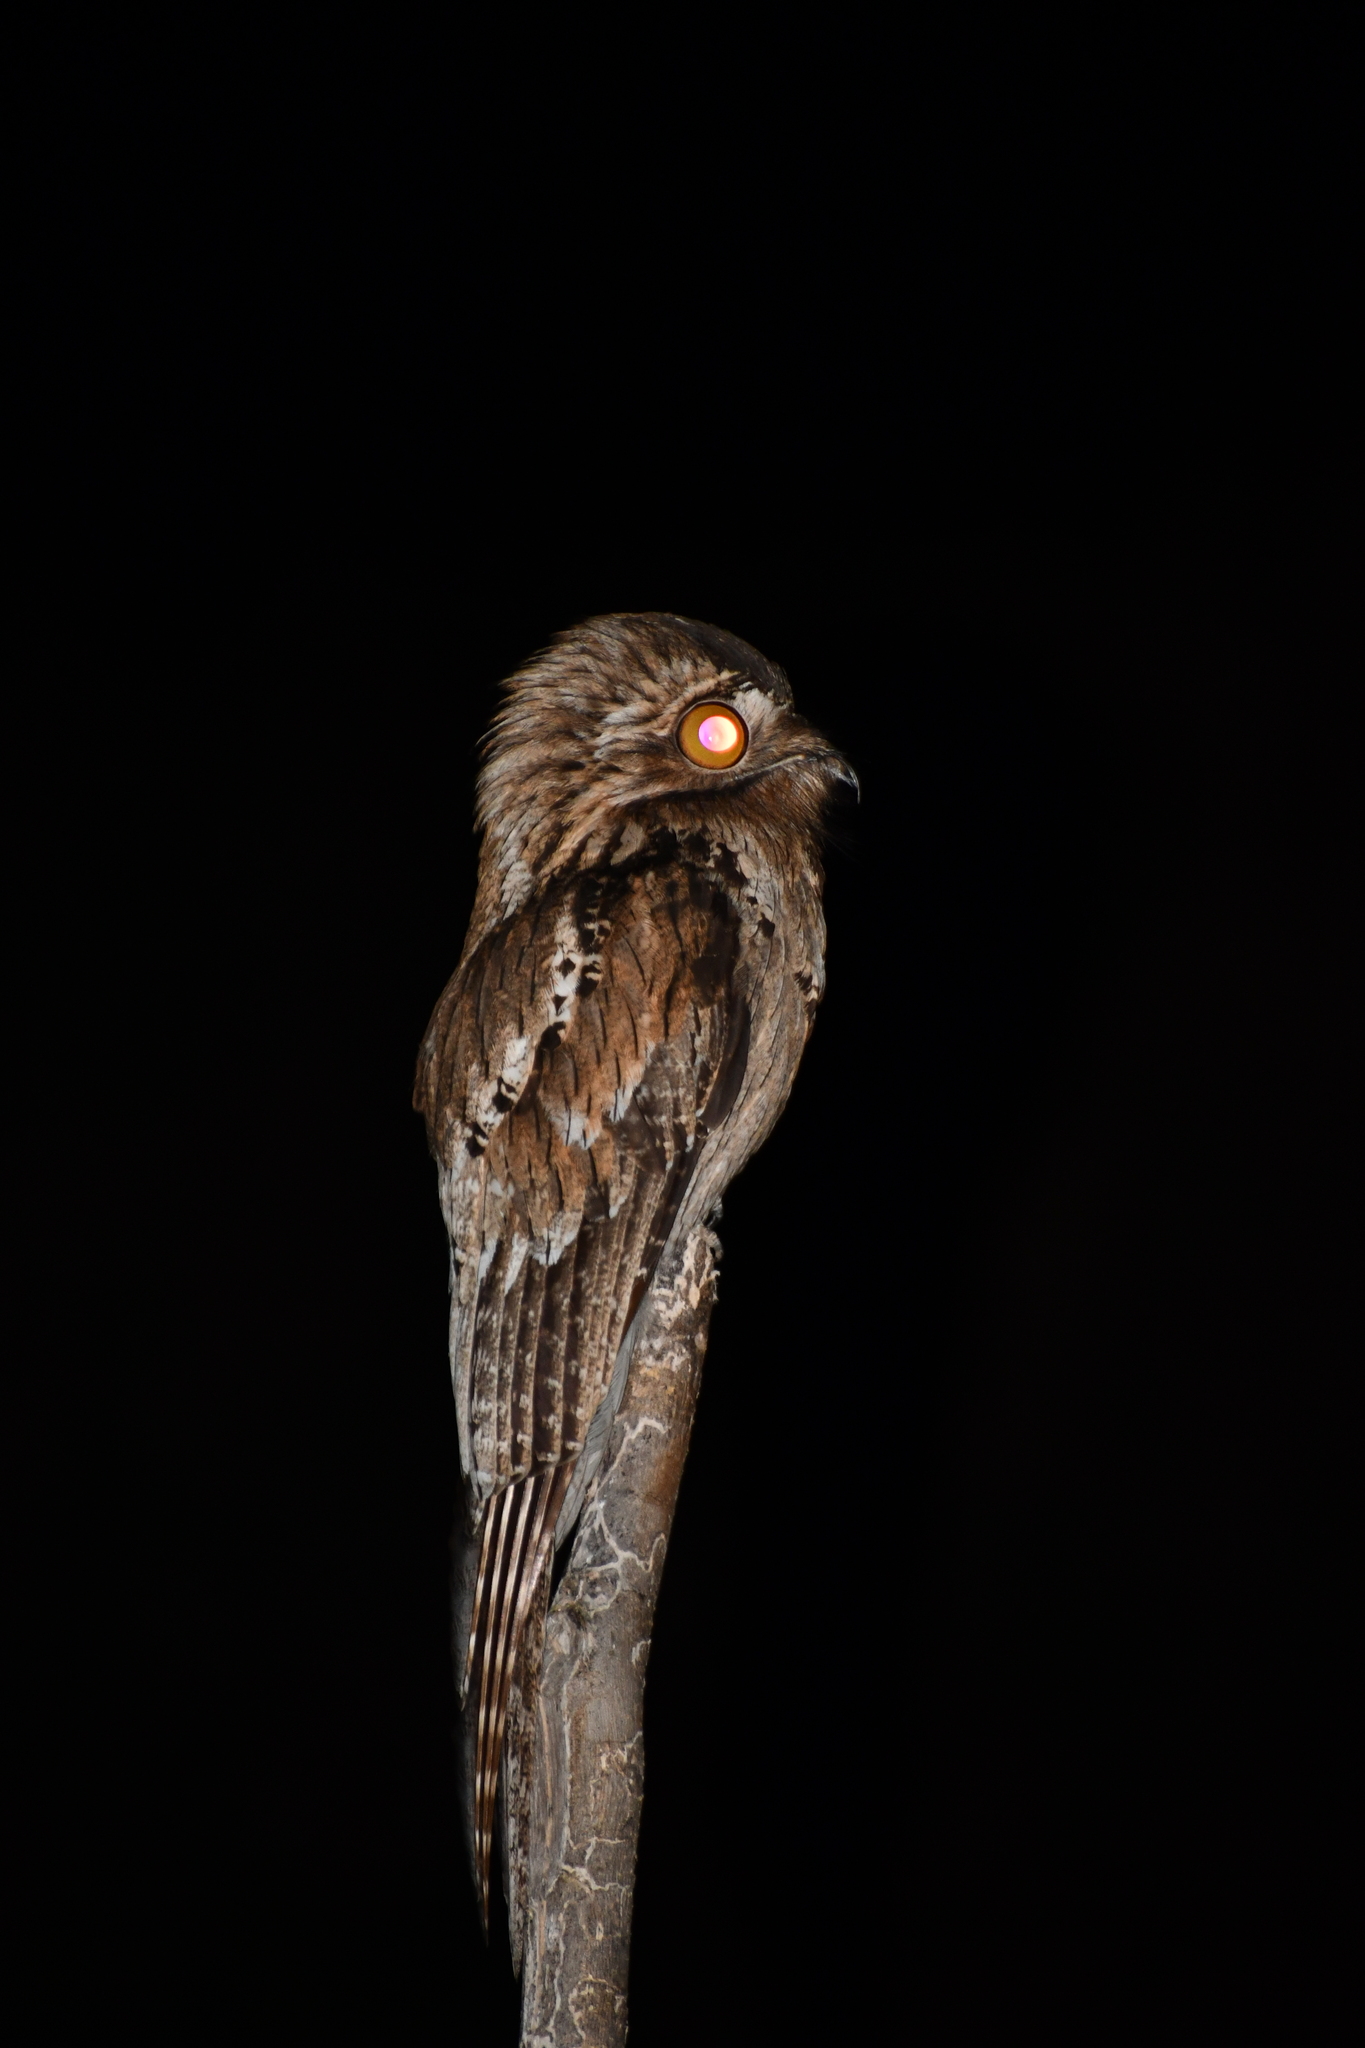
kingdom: Animalia
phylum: Chordata
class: Aves
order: Nyctibiiformes
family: Nyctibiidae
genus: Nyctibius
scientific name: Nyctibius jamaicensis
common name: Northern potoo
